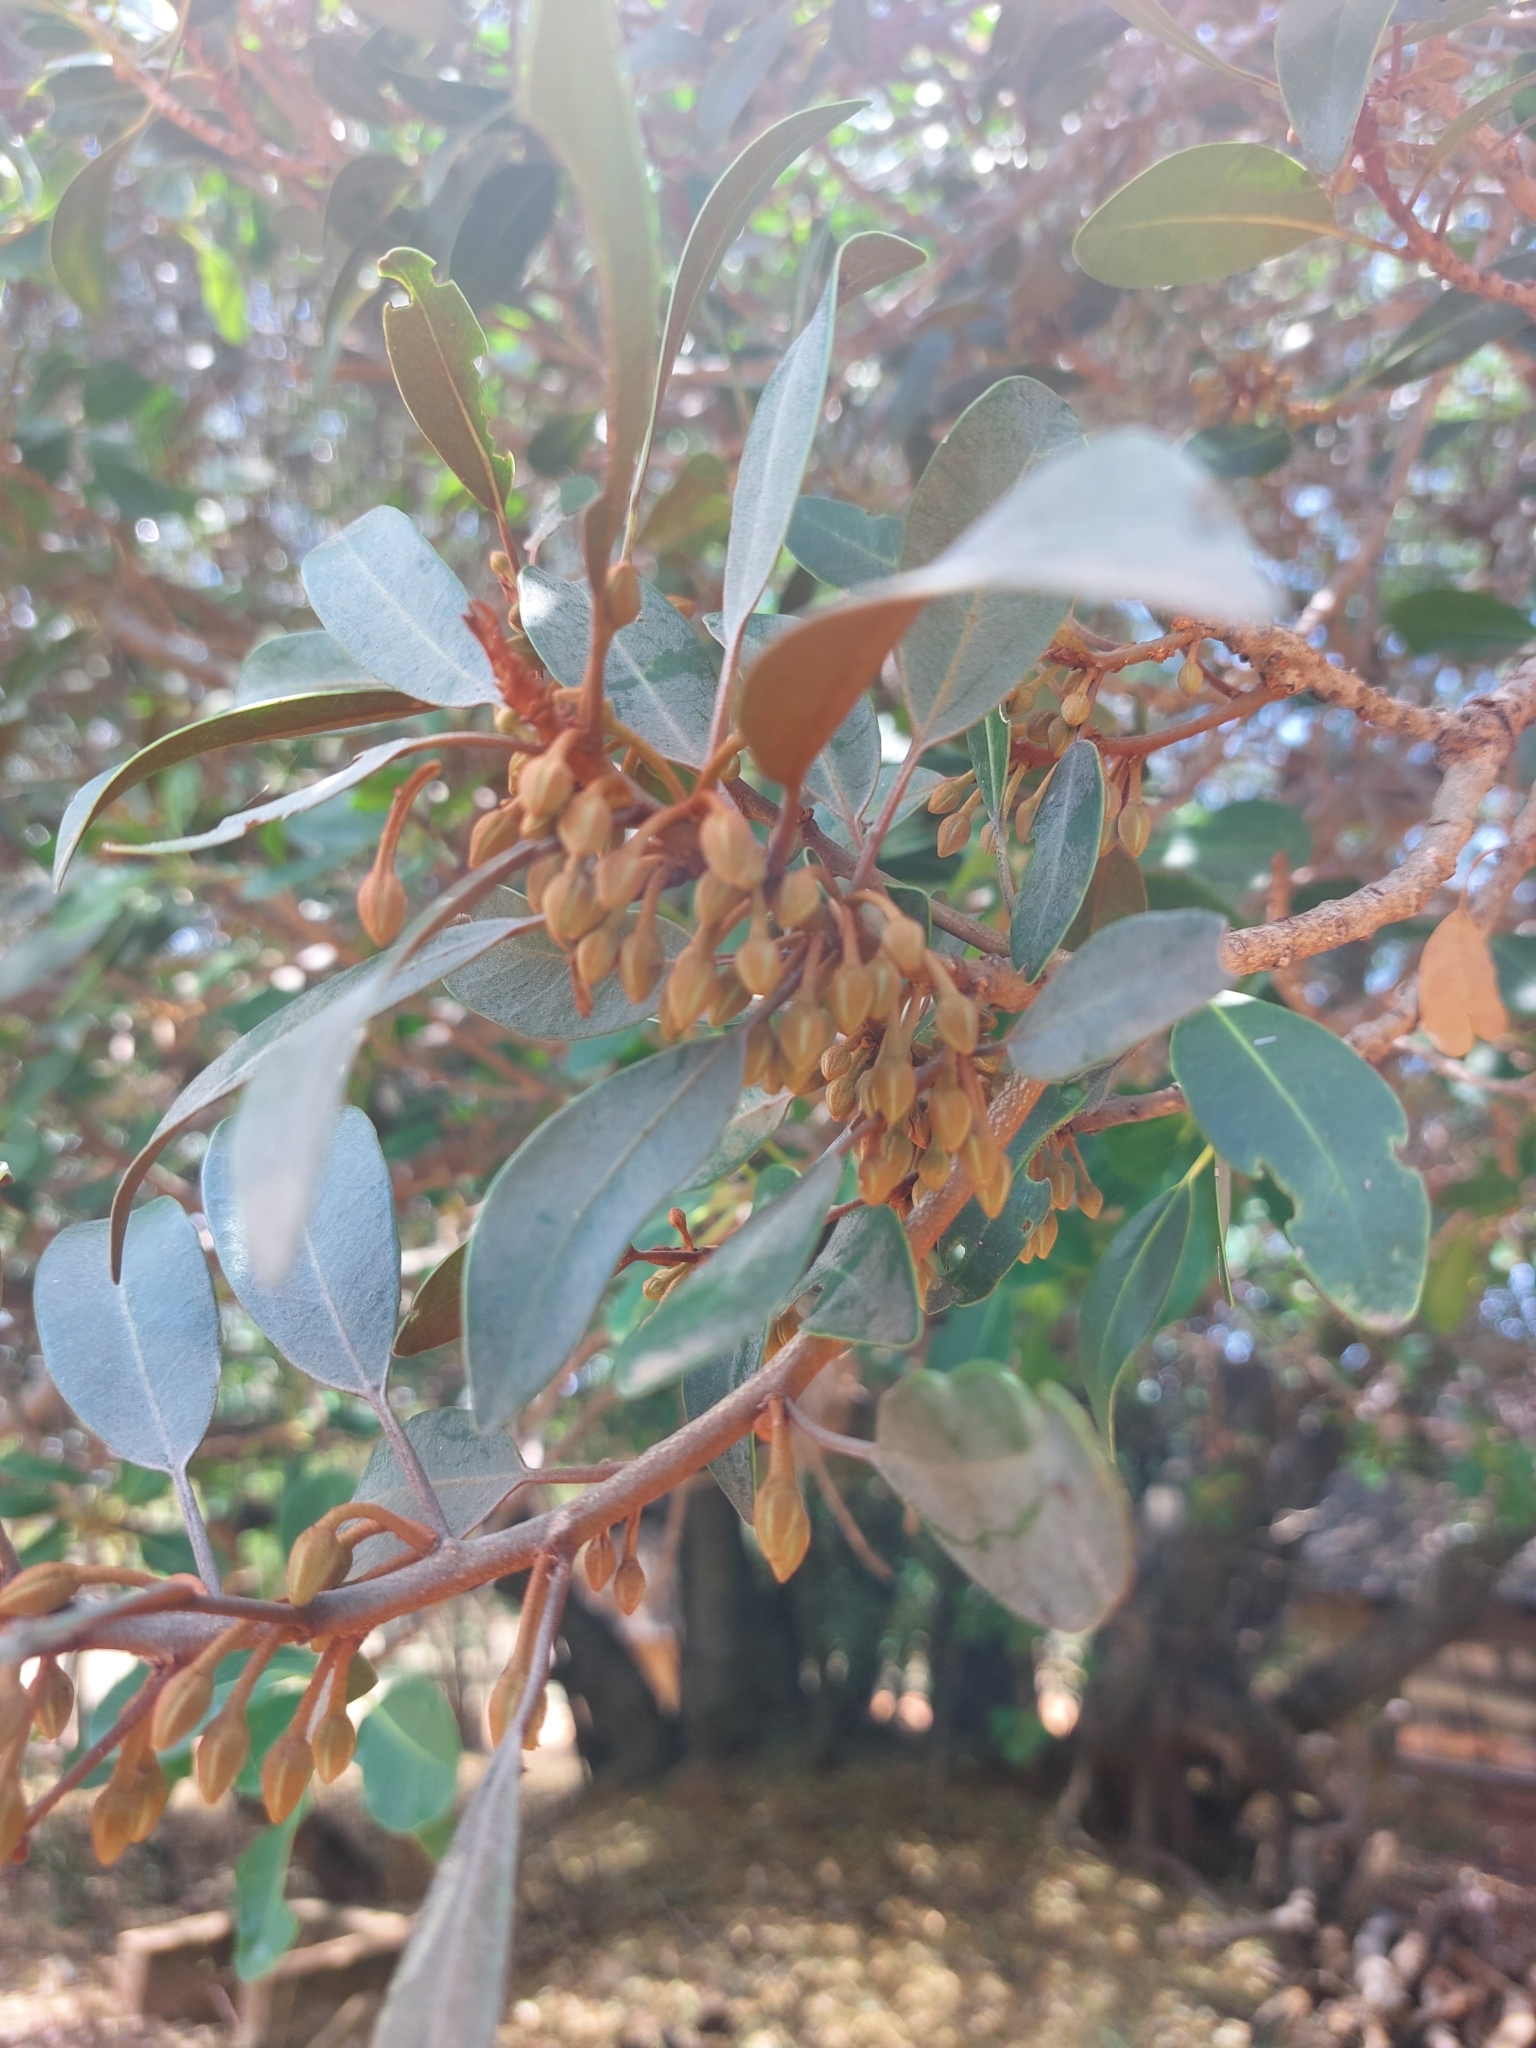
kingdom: Plantae
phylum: Tracheophyta
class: Magnoliopsida
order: Ericales
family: Sapotaceae
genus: Mimusops
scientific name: Mimusops zeyheri
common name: Transvaal red milkwood
